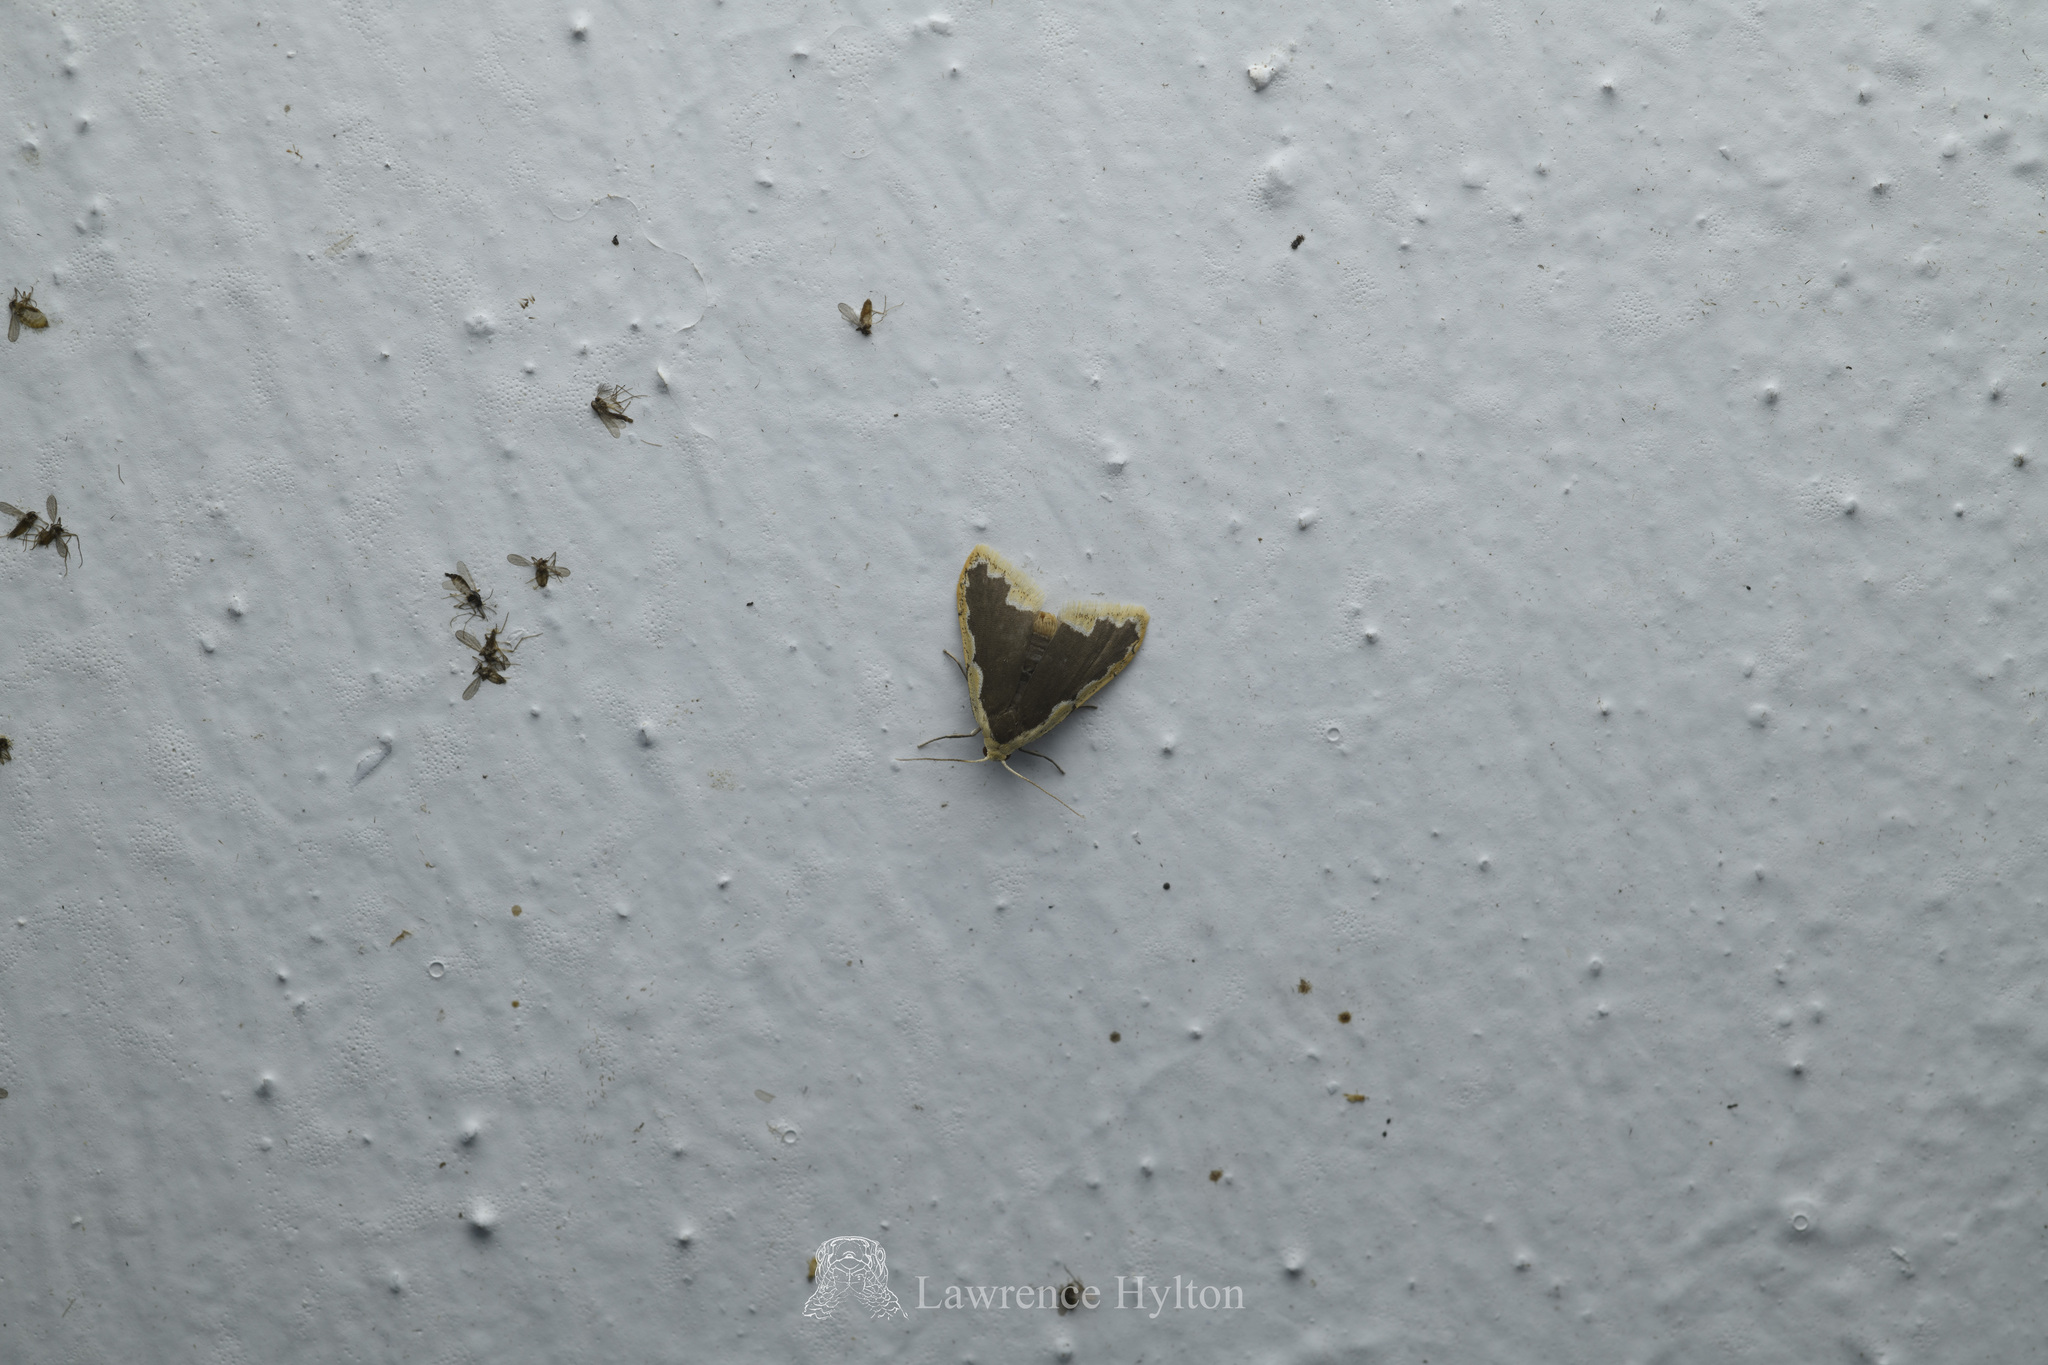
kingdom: Animalia
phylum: Arthropoda
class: Insecta
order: Lepidoptera
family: Erebidae
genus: Diduga
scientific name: Diduga flavicostata
